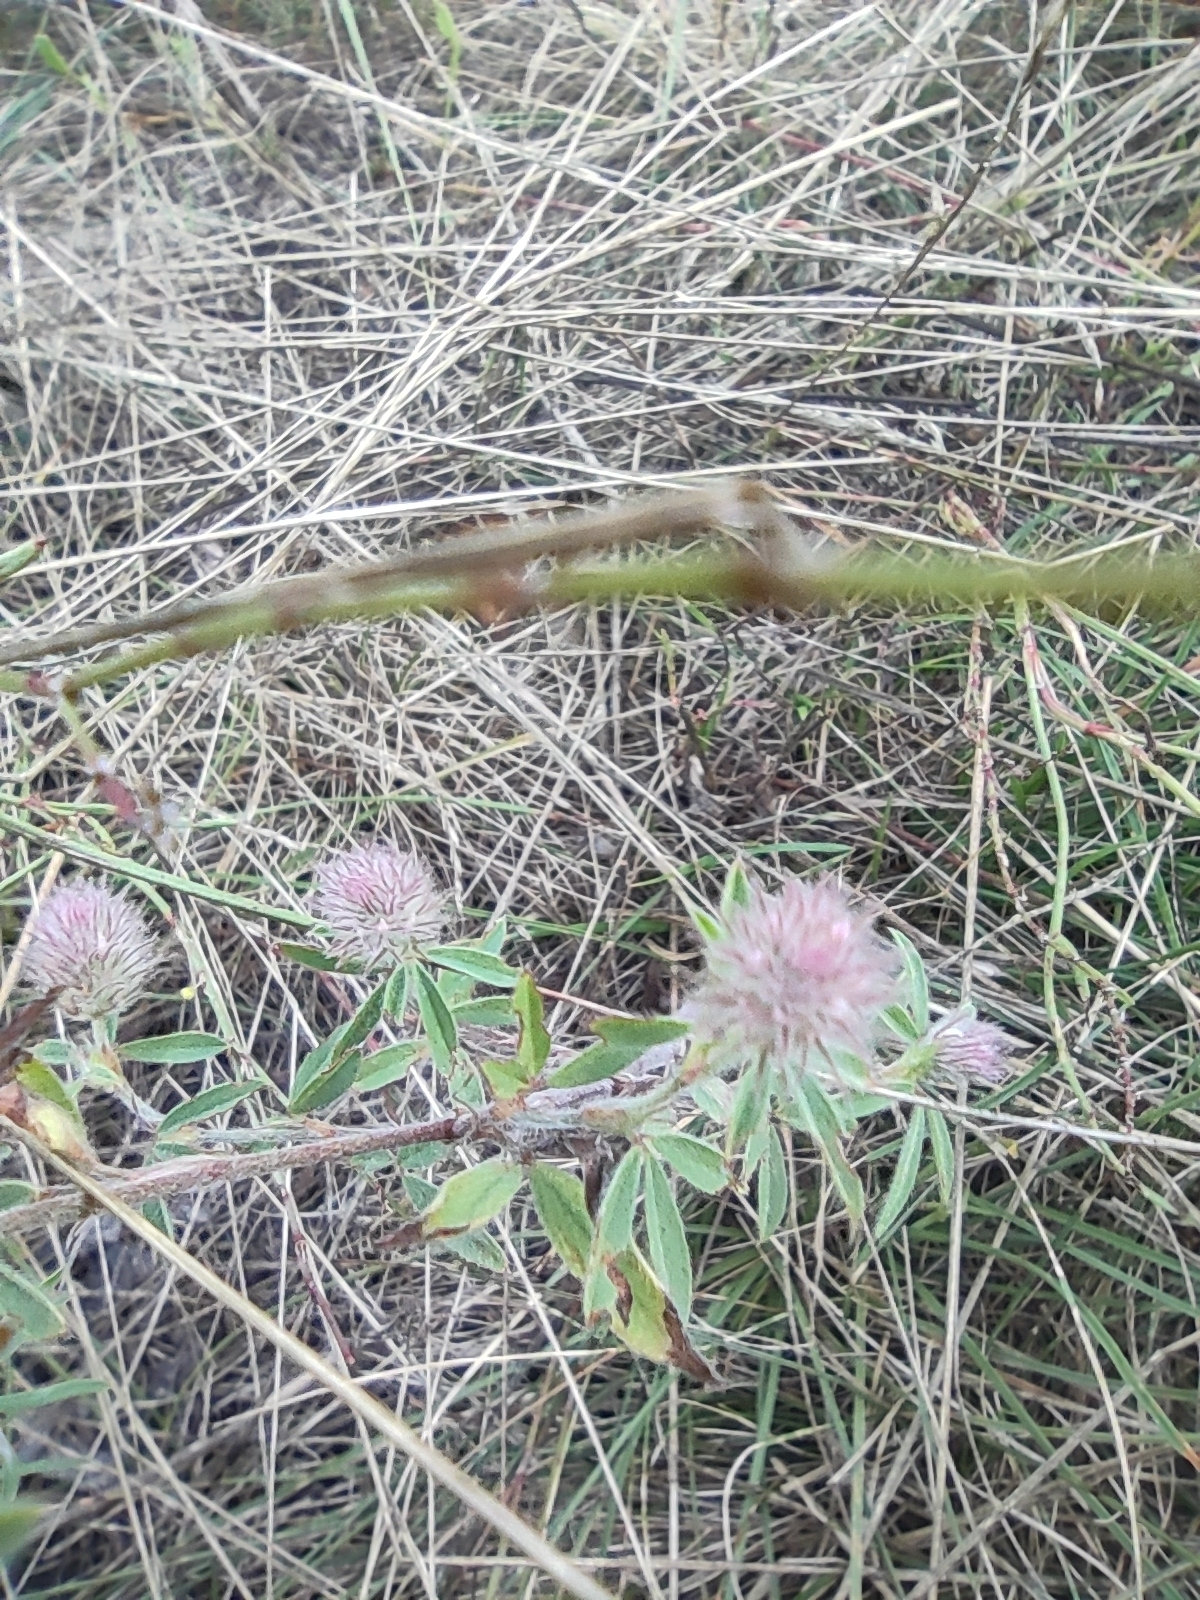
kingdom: Plantae
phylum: Tracheophyta
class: Magnoliopsida
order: Fabales
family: Fabaceae
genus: Trifolium
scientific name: Trifolium arvense
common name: Hare's-foot clover
